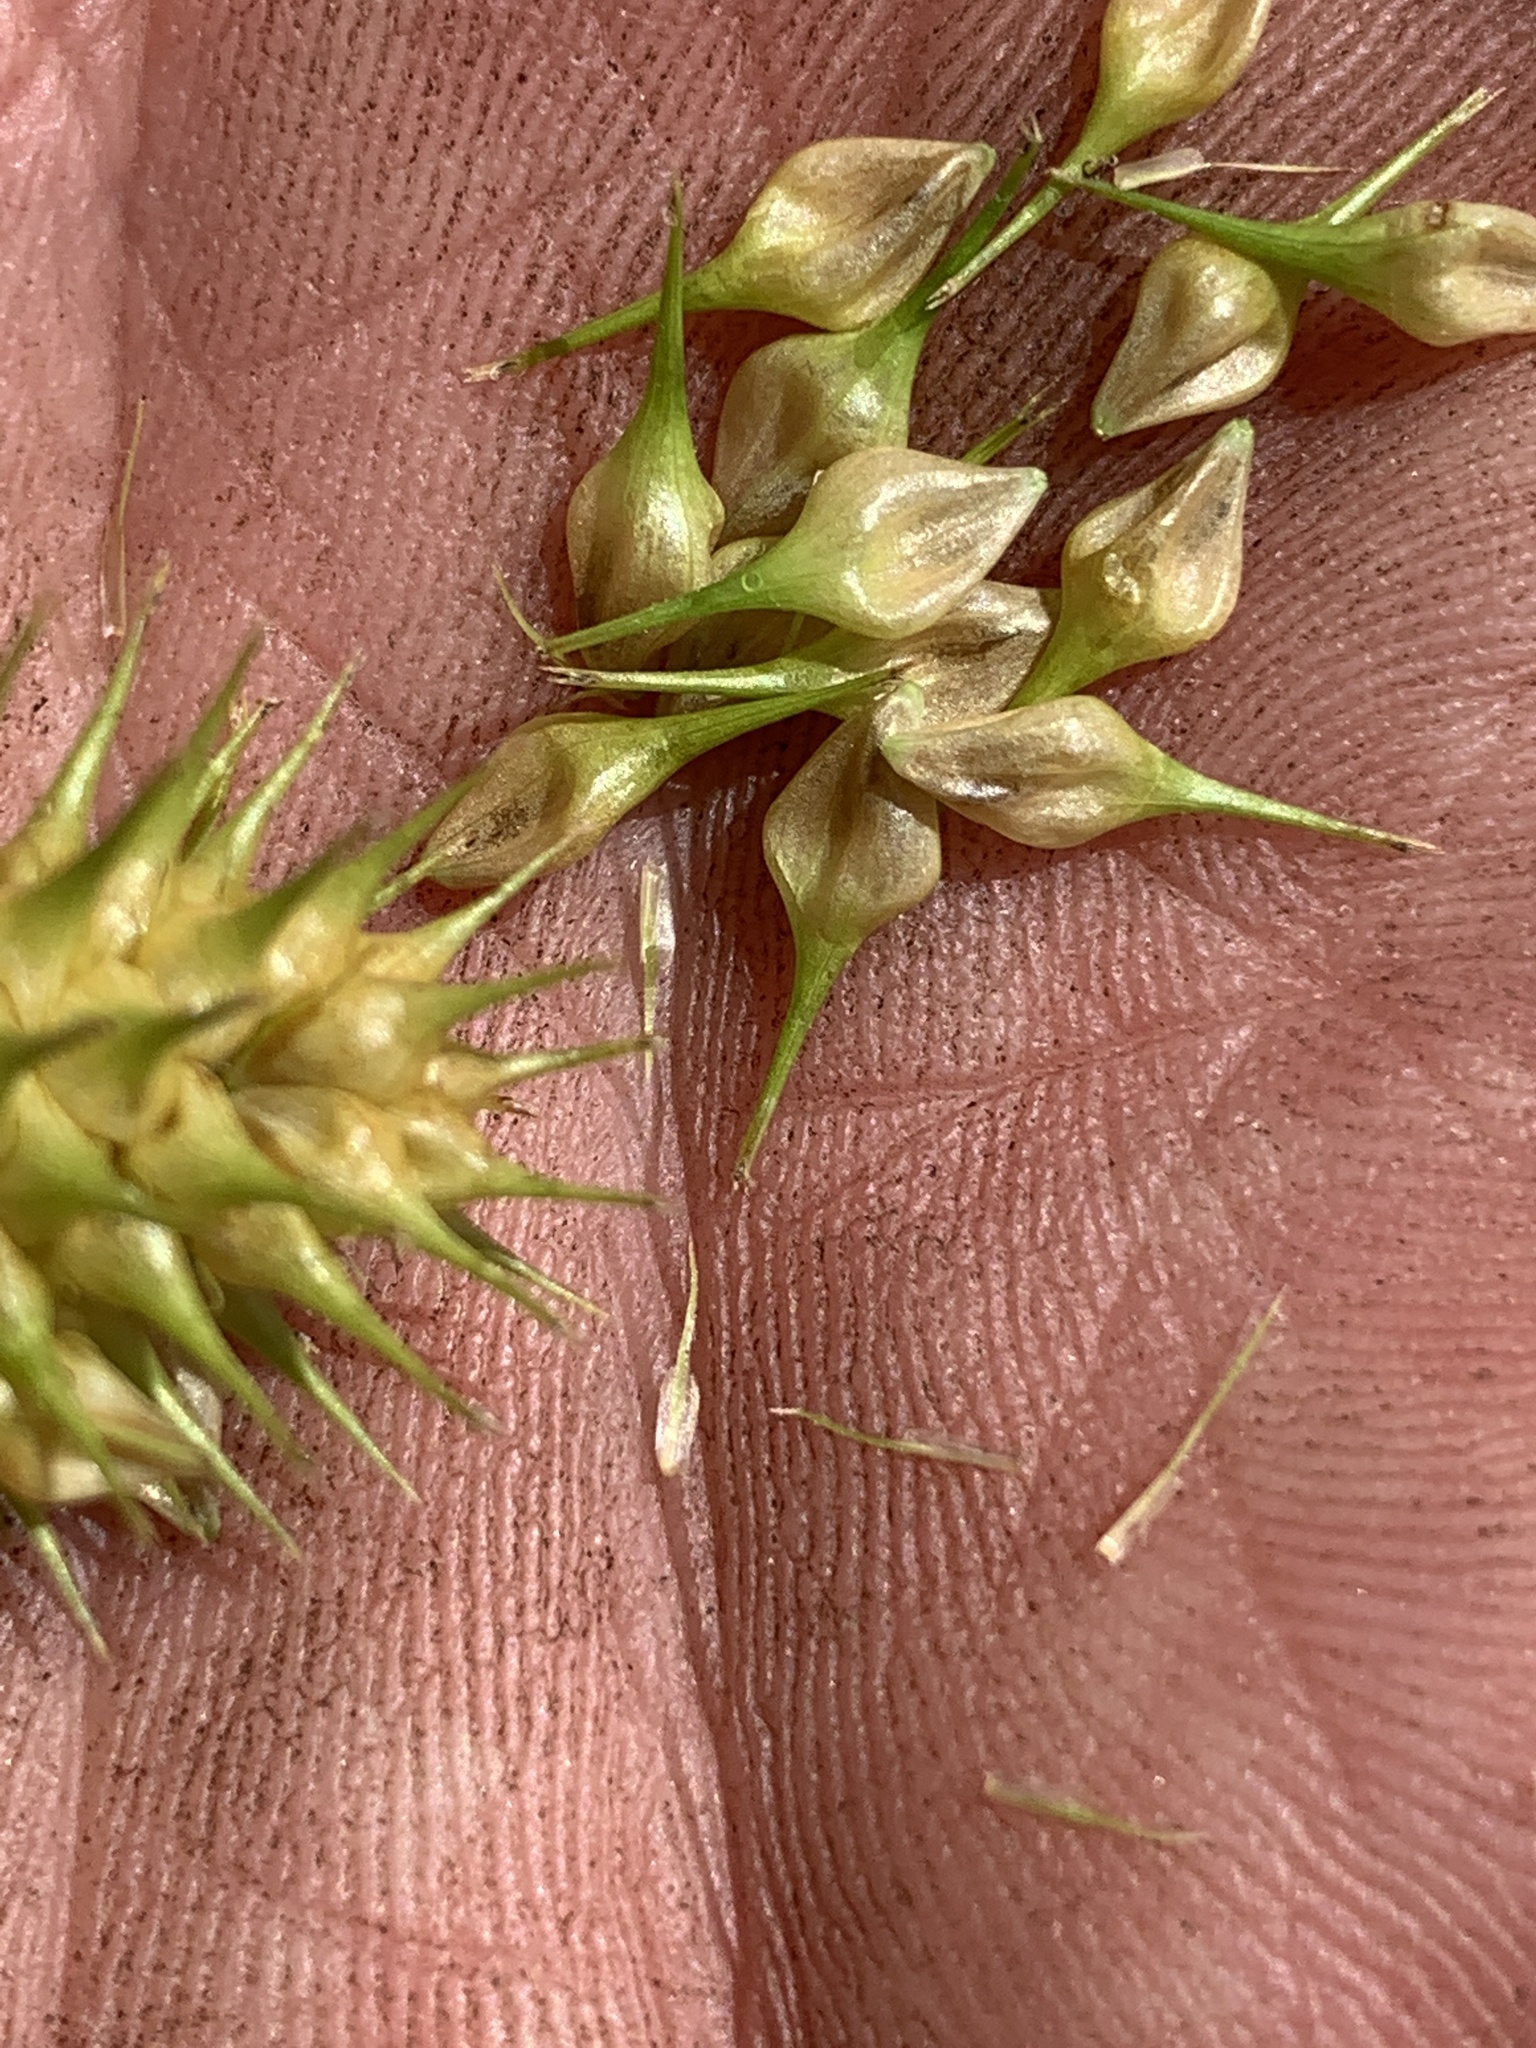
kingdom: Plantae
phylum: Tracheophyta
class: Liliopsida
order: Poales
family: Cyperaceae
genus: Carex
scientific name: Carex lurida
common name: Sallow sedge
